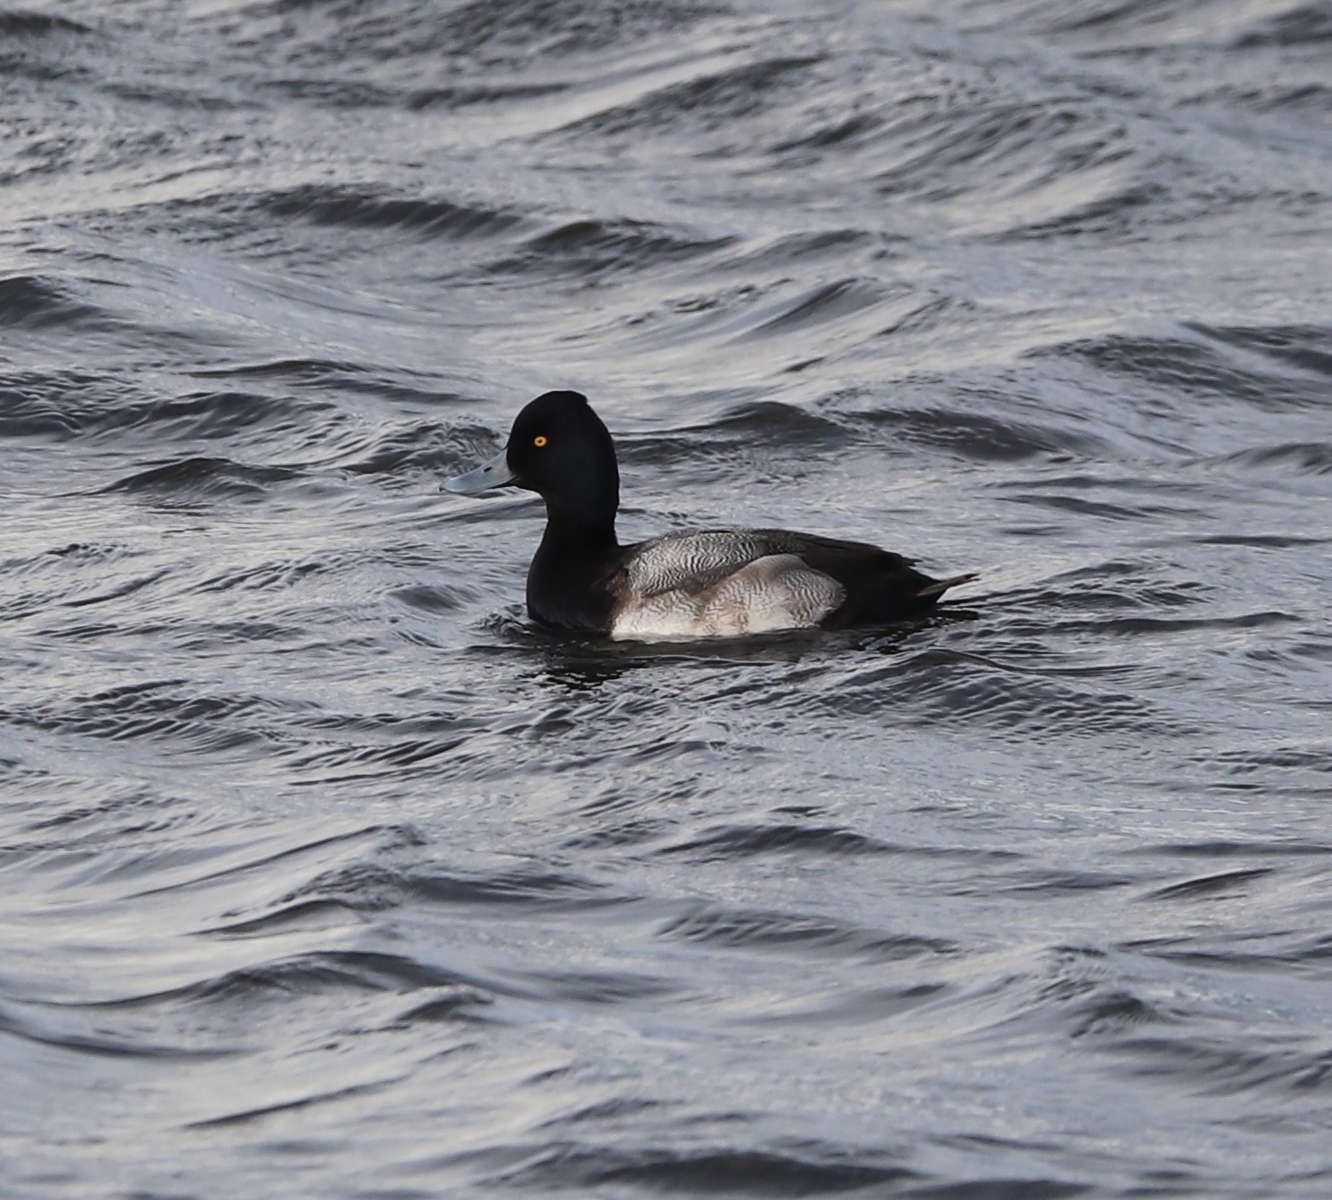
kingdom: Animalia
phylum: Chordata
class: Aves
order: Anseriformes
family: Anatidae
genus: Aythya
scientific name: Aythya affinis
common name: Lesser scaup
